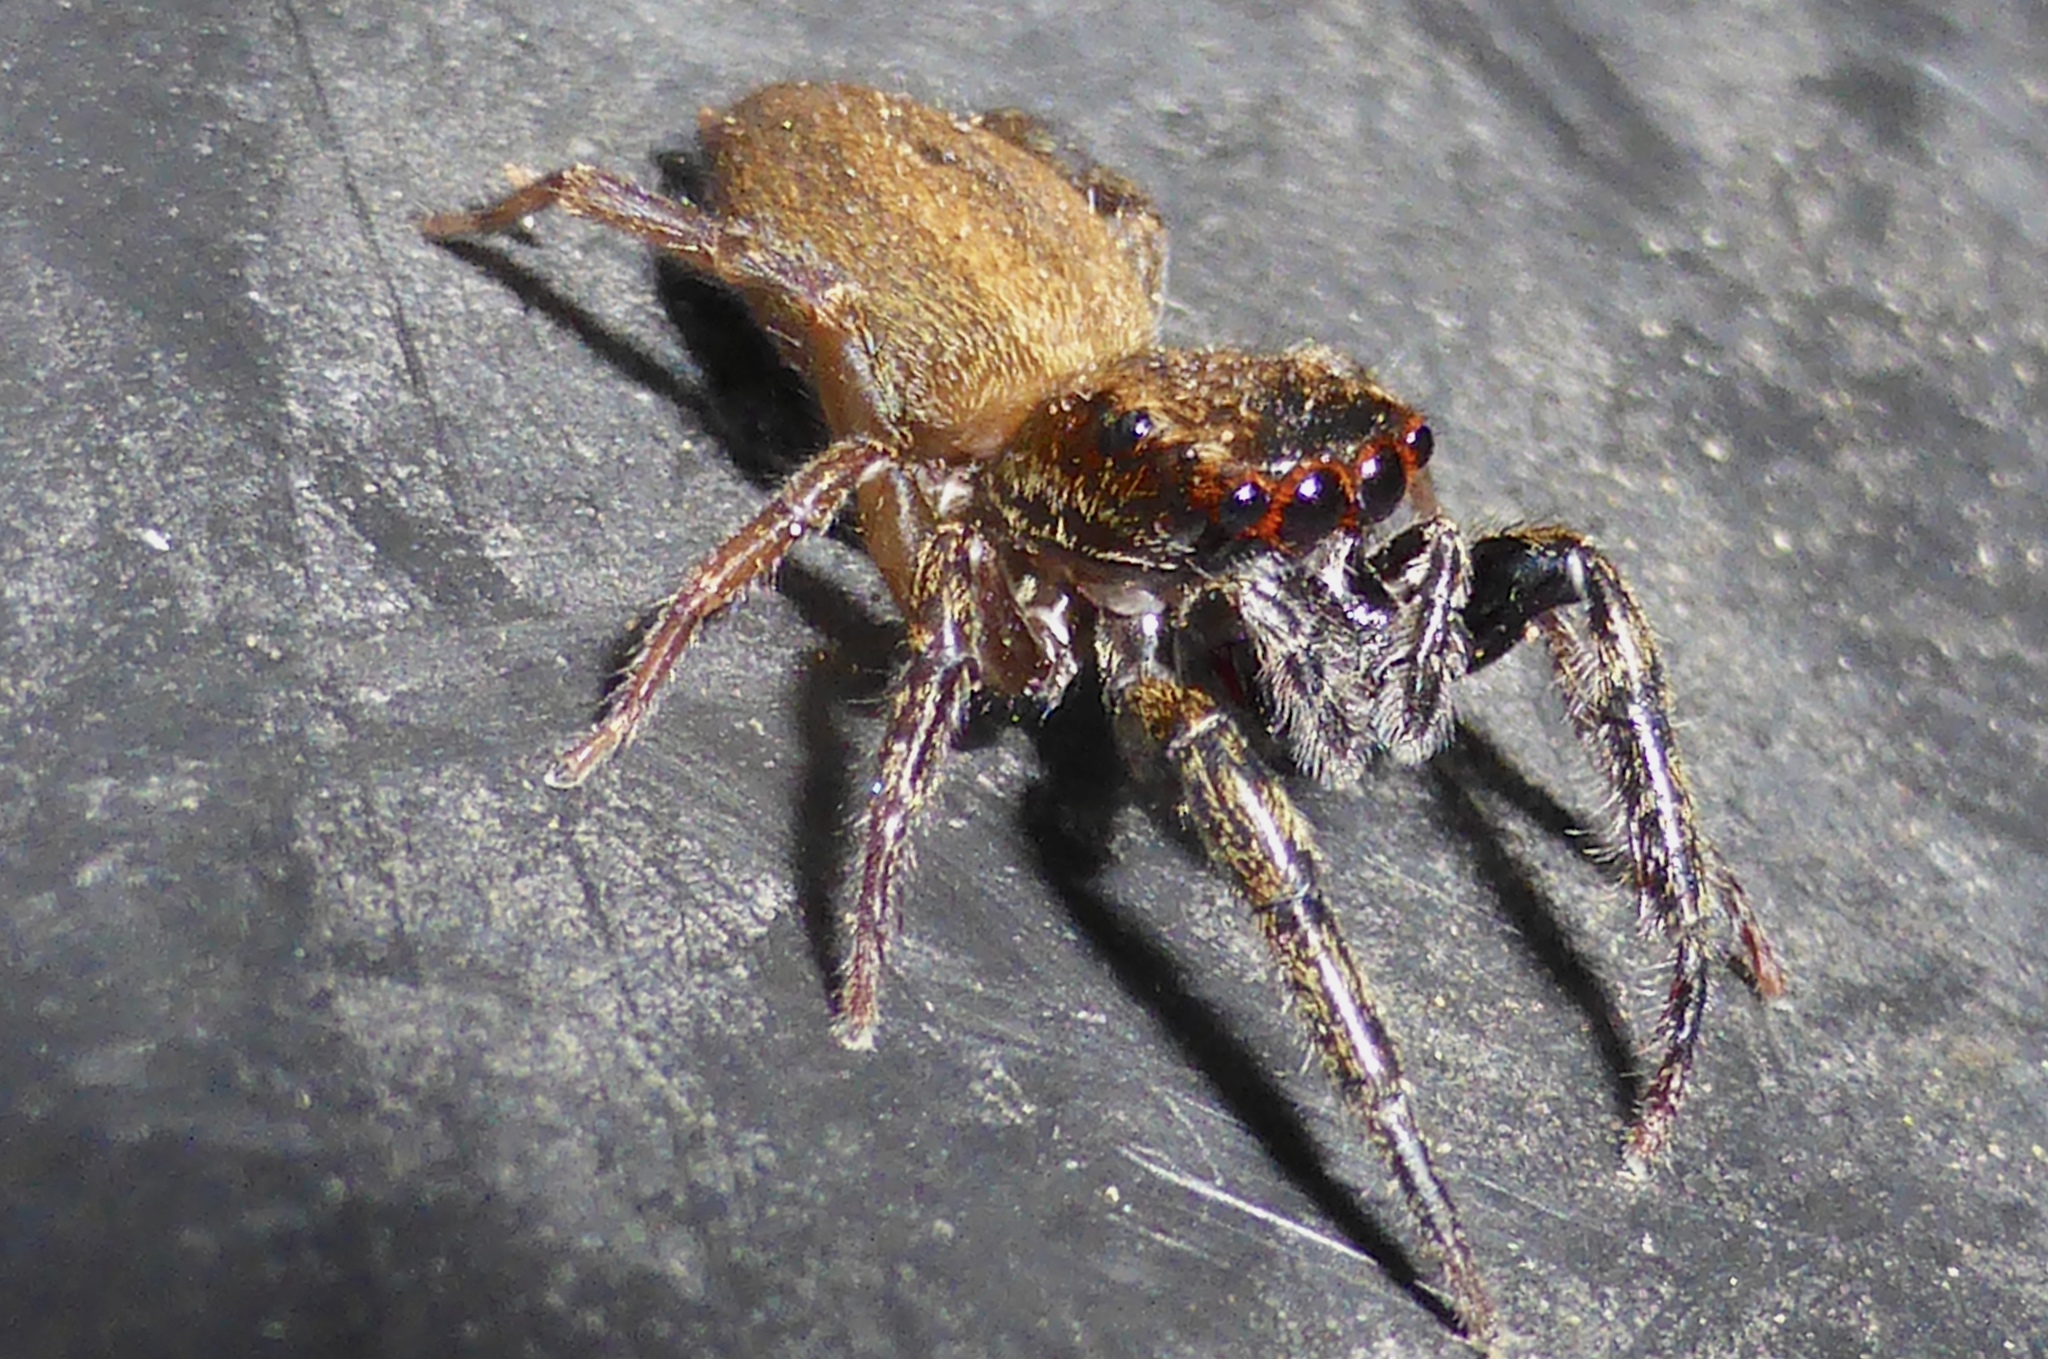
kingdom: Animalia
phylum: Arthropoda
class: Arachnida
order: Araneae
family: Salticidae
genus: Trite
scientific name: Trite auricoma
